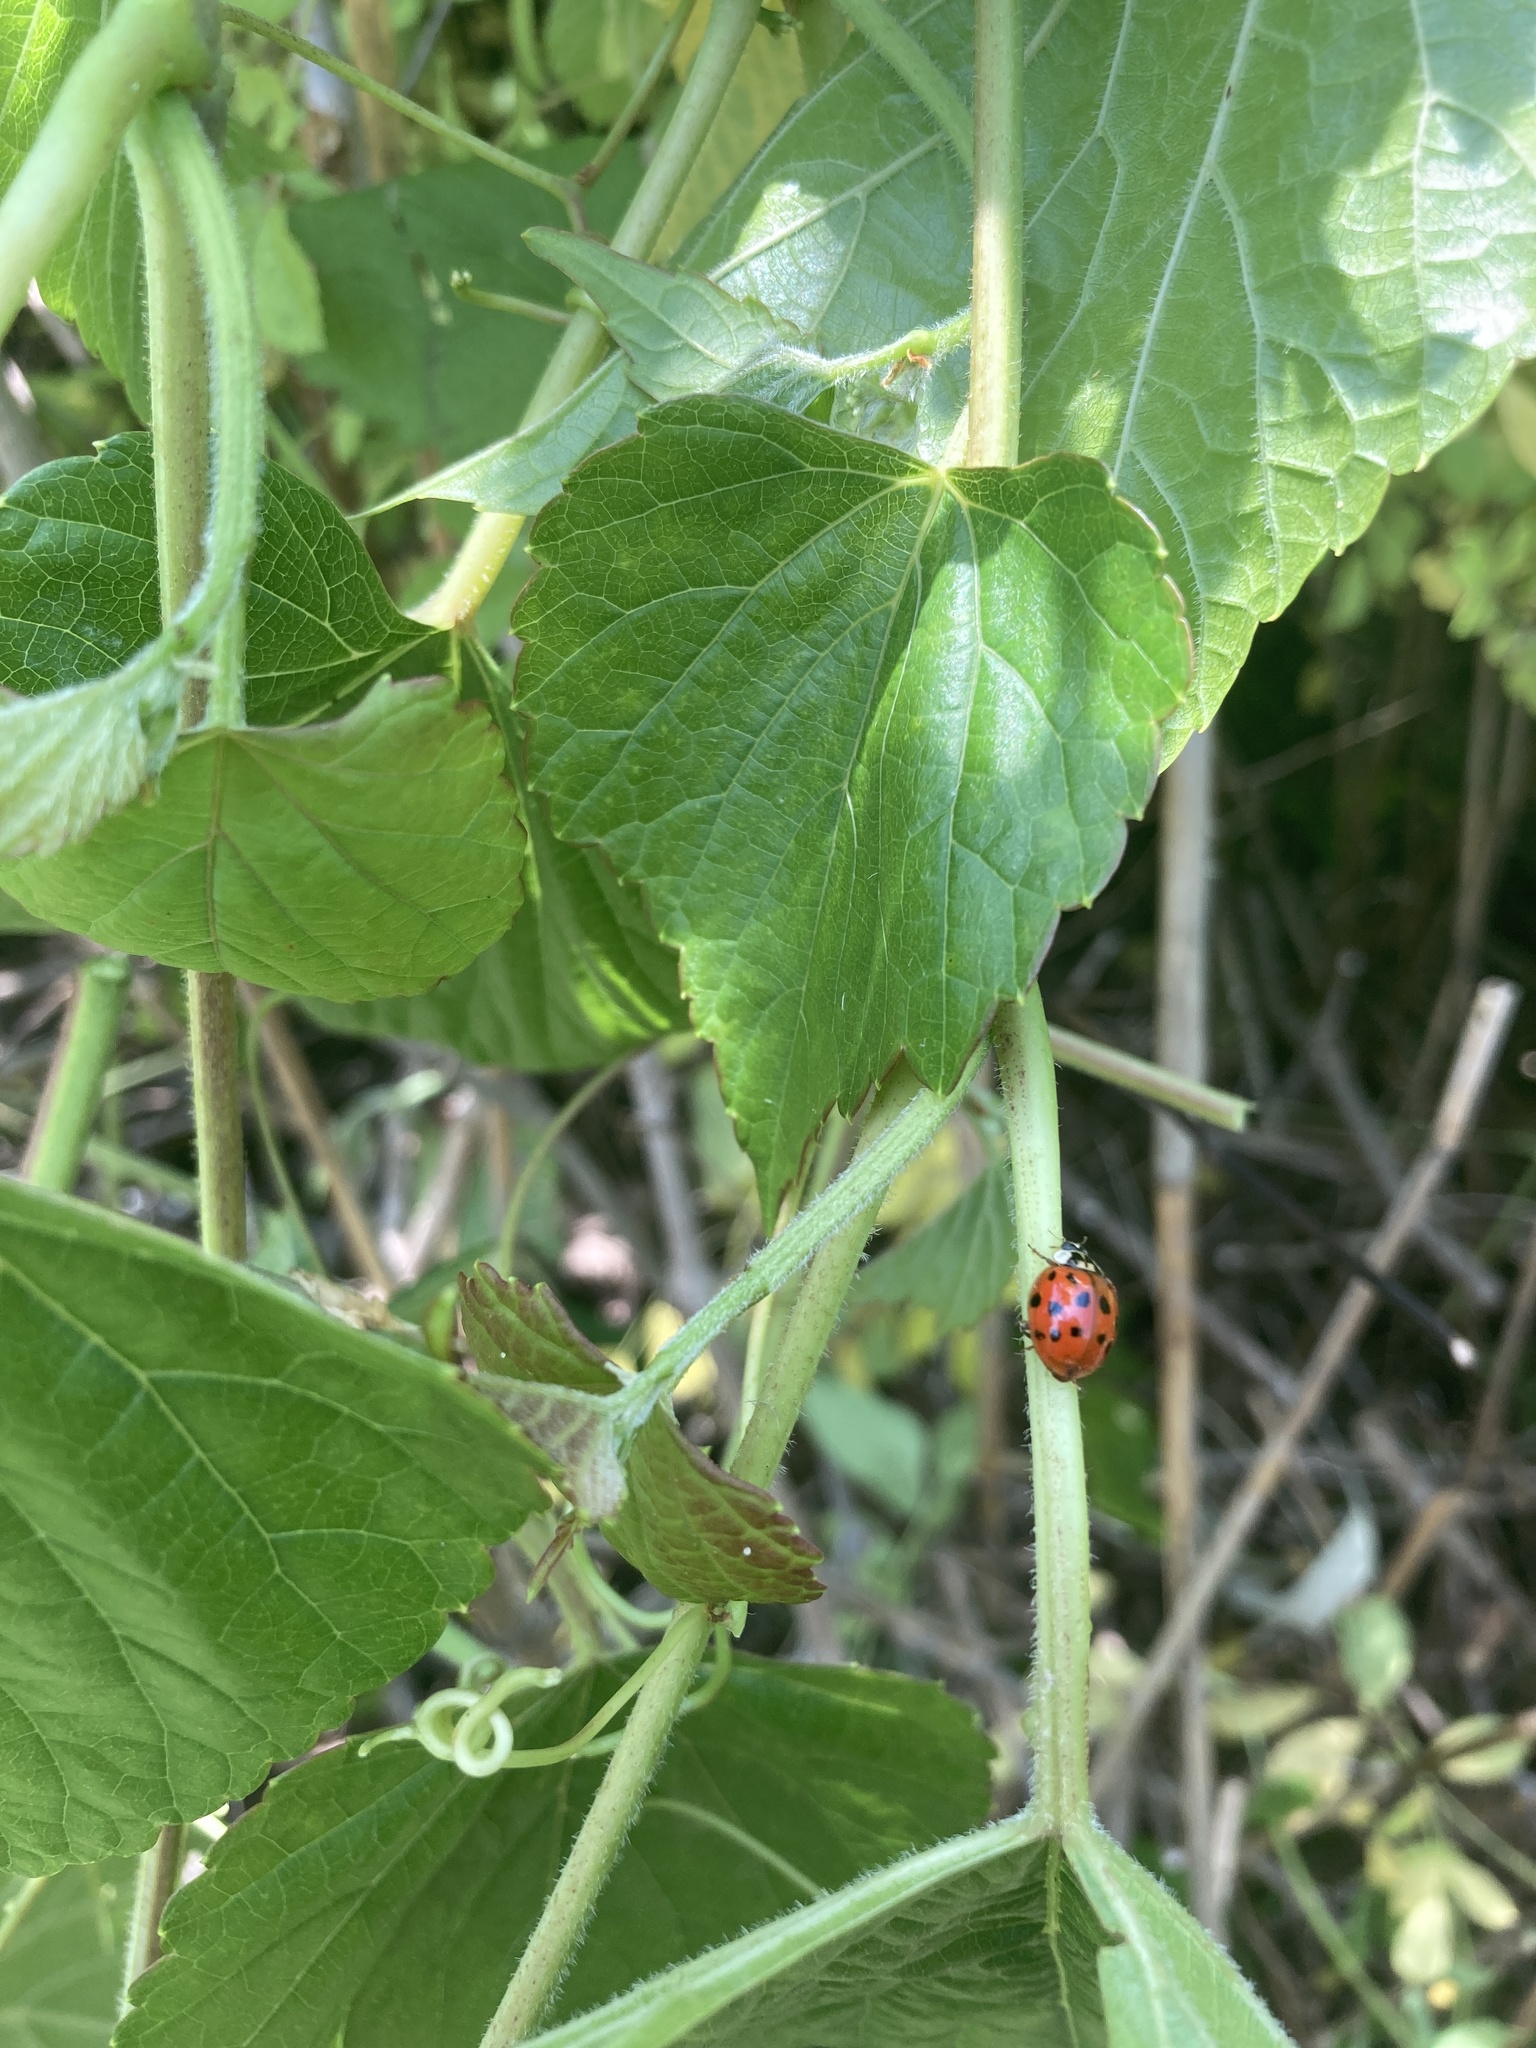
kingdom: Animalia
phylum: Arthropoda
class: Insecta
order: Coleoptera
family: Coccinellidae
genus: Harmonia
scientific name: Harmonia axyridis
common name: Harlequin ladybird
